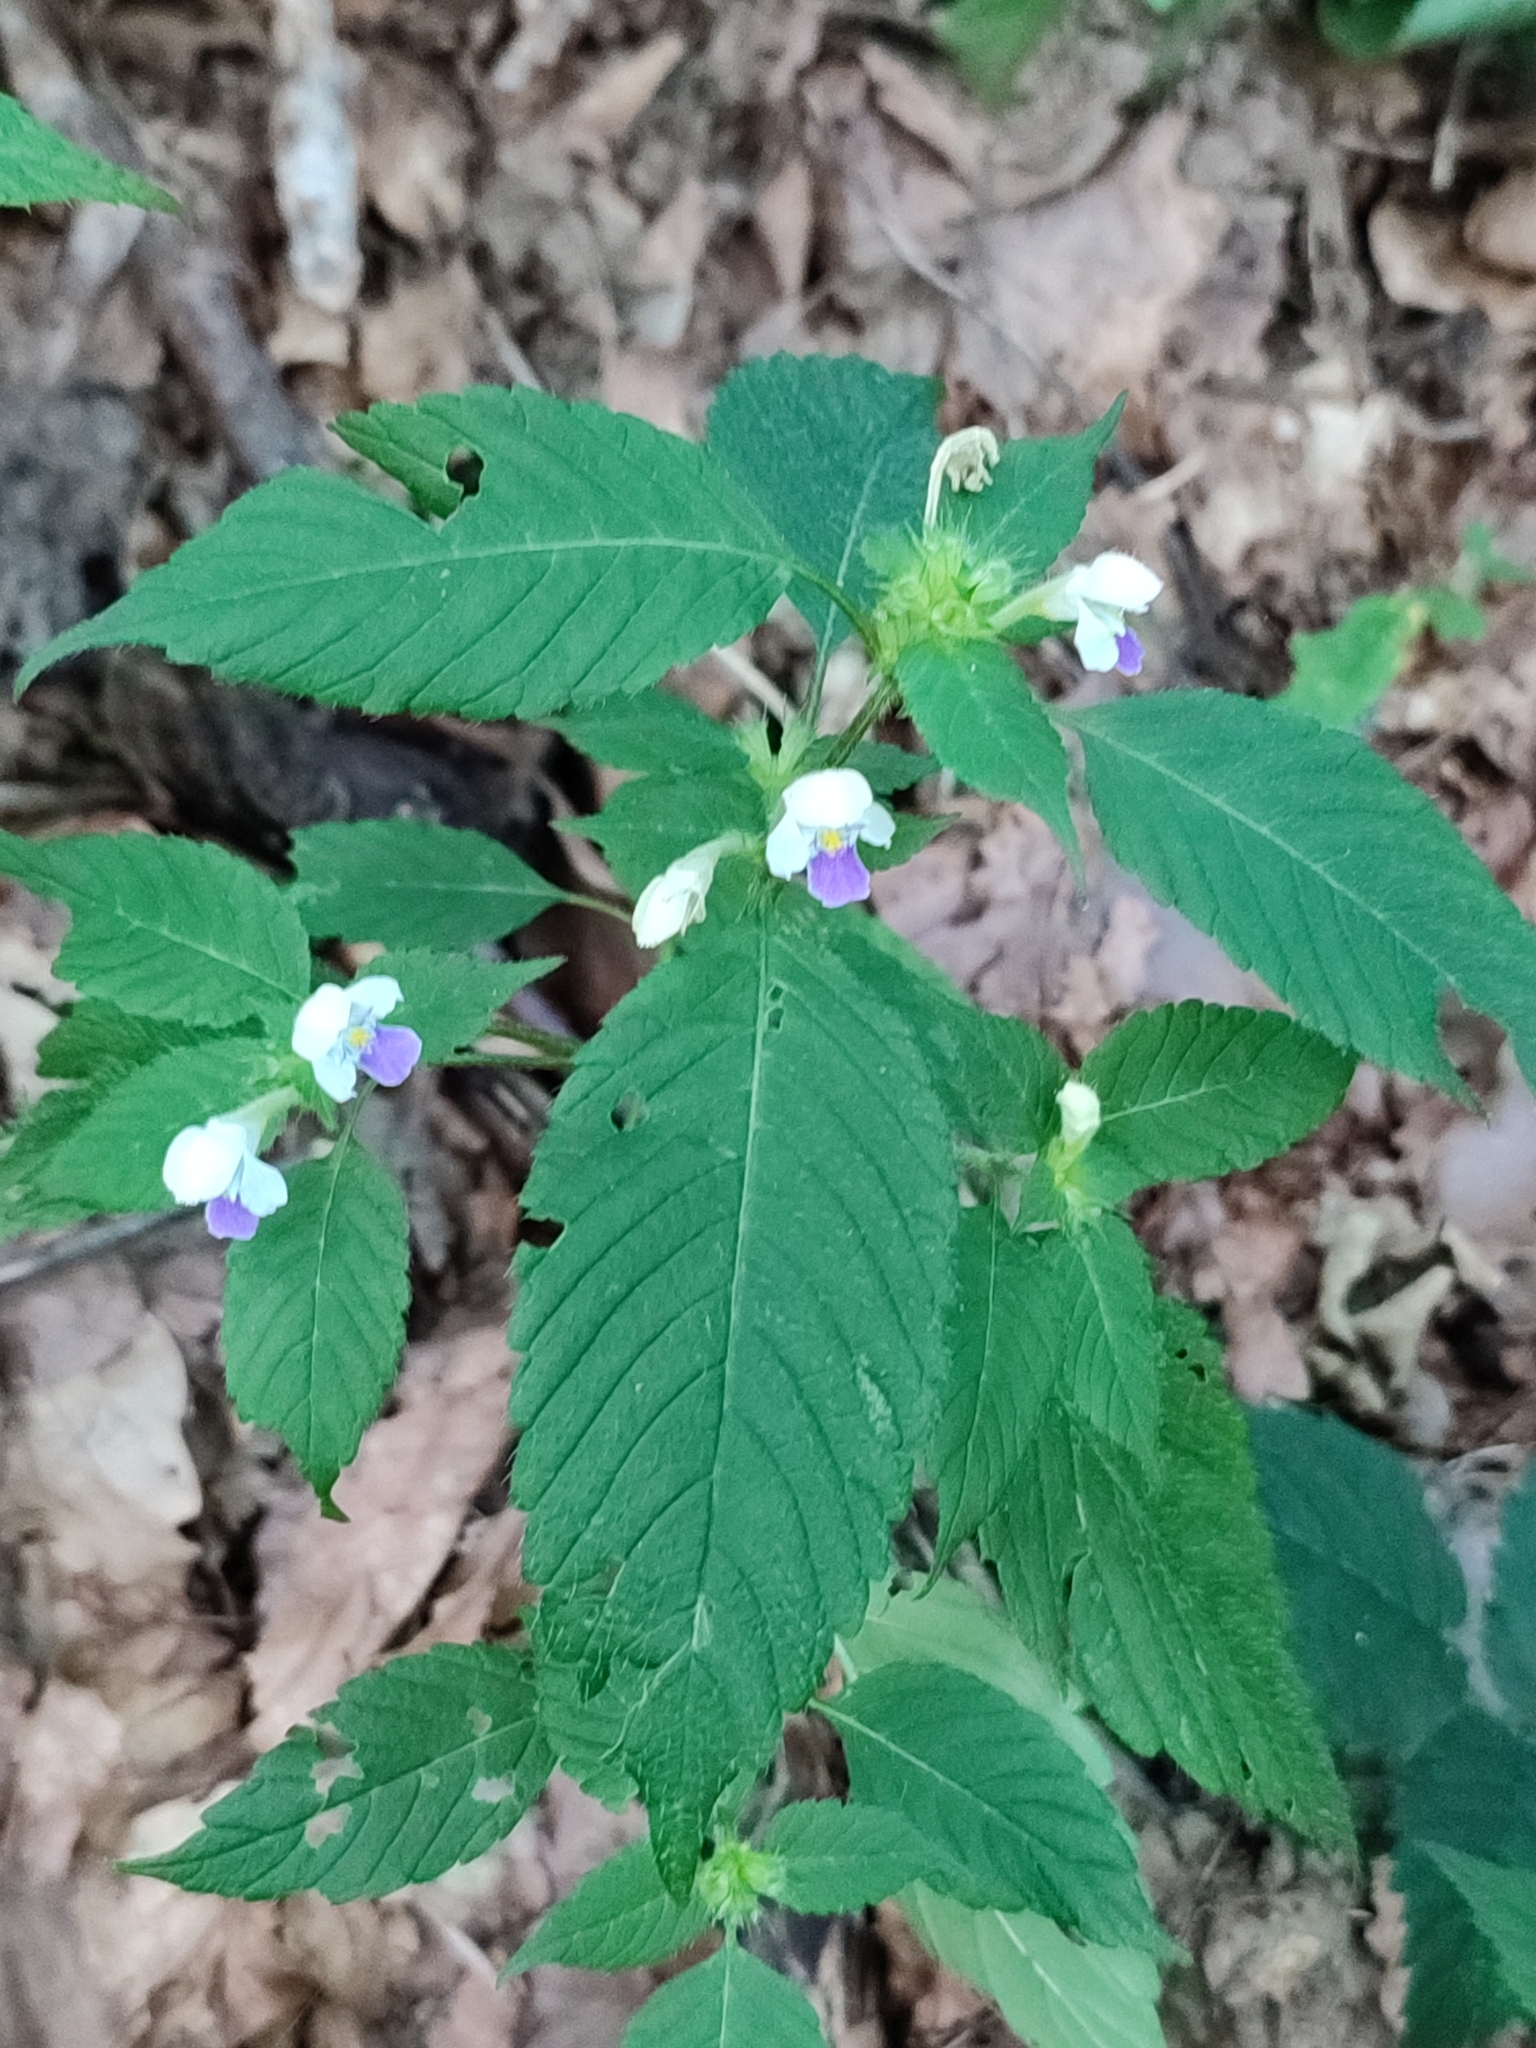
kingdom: Plantae
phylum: Tracheophyta
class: Magnoliopsida
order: Lamiales
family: Lamiaceae
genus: Galeopsis
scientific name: Galeopsis speciosa
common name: Large-flowered hemp-nettle
